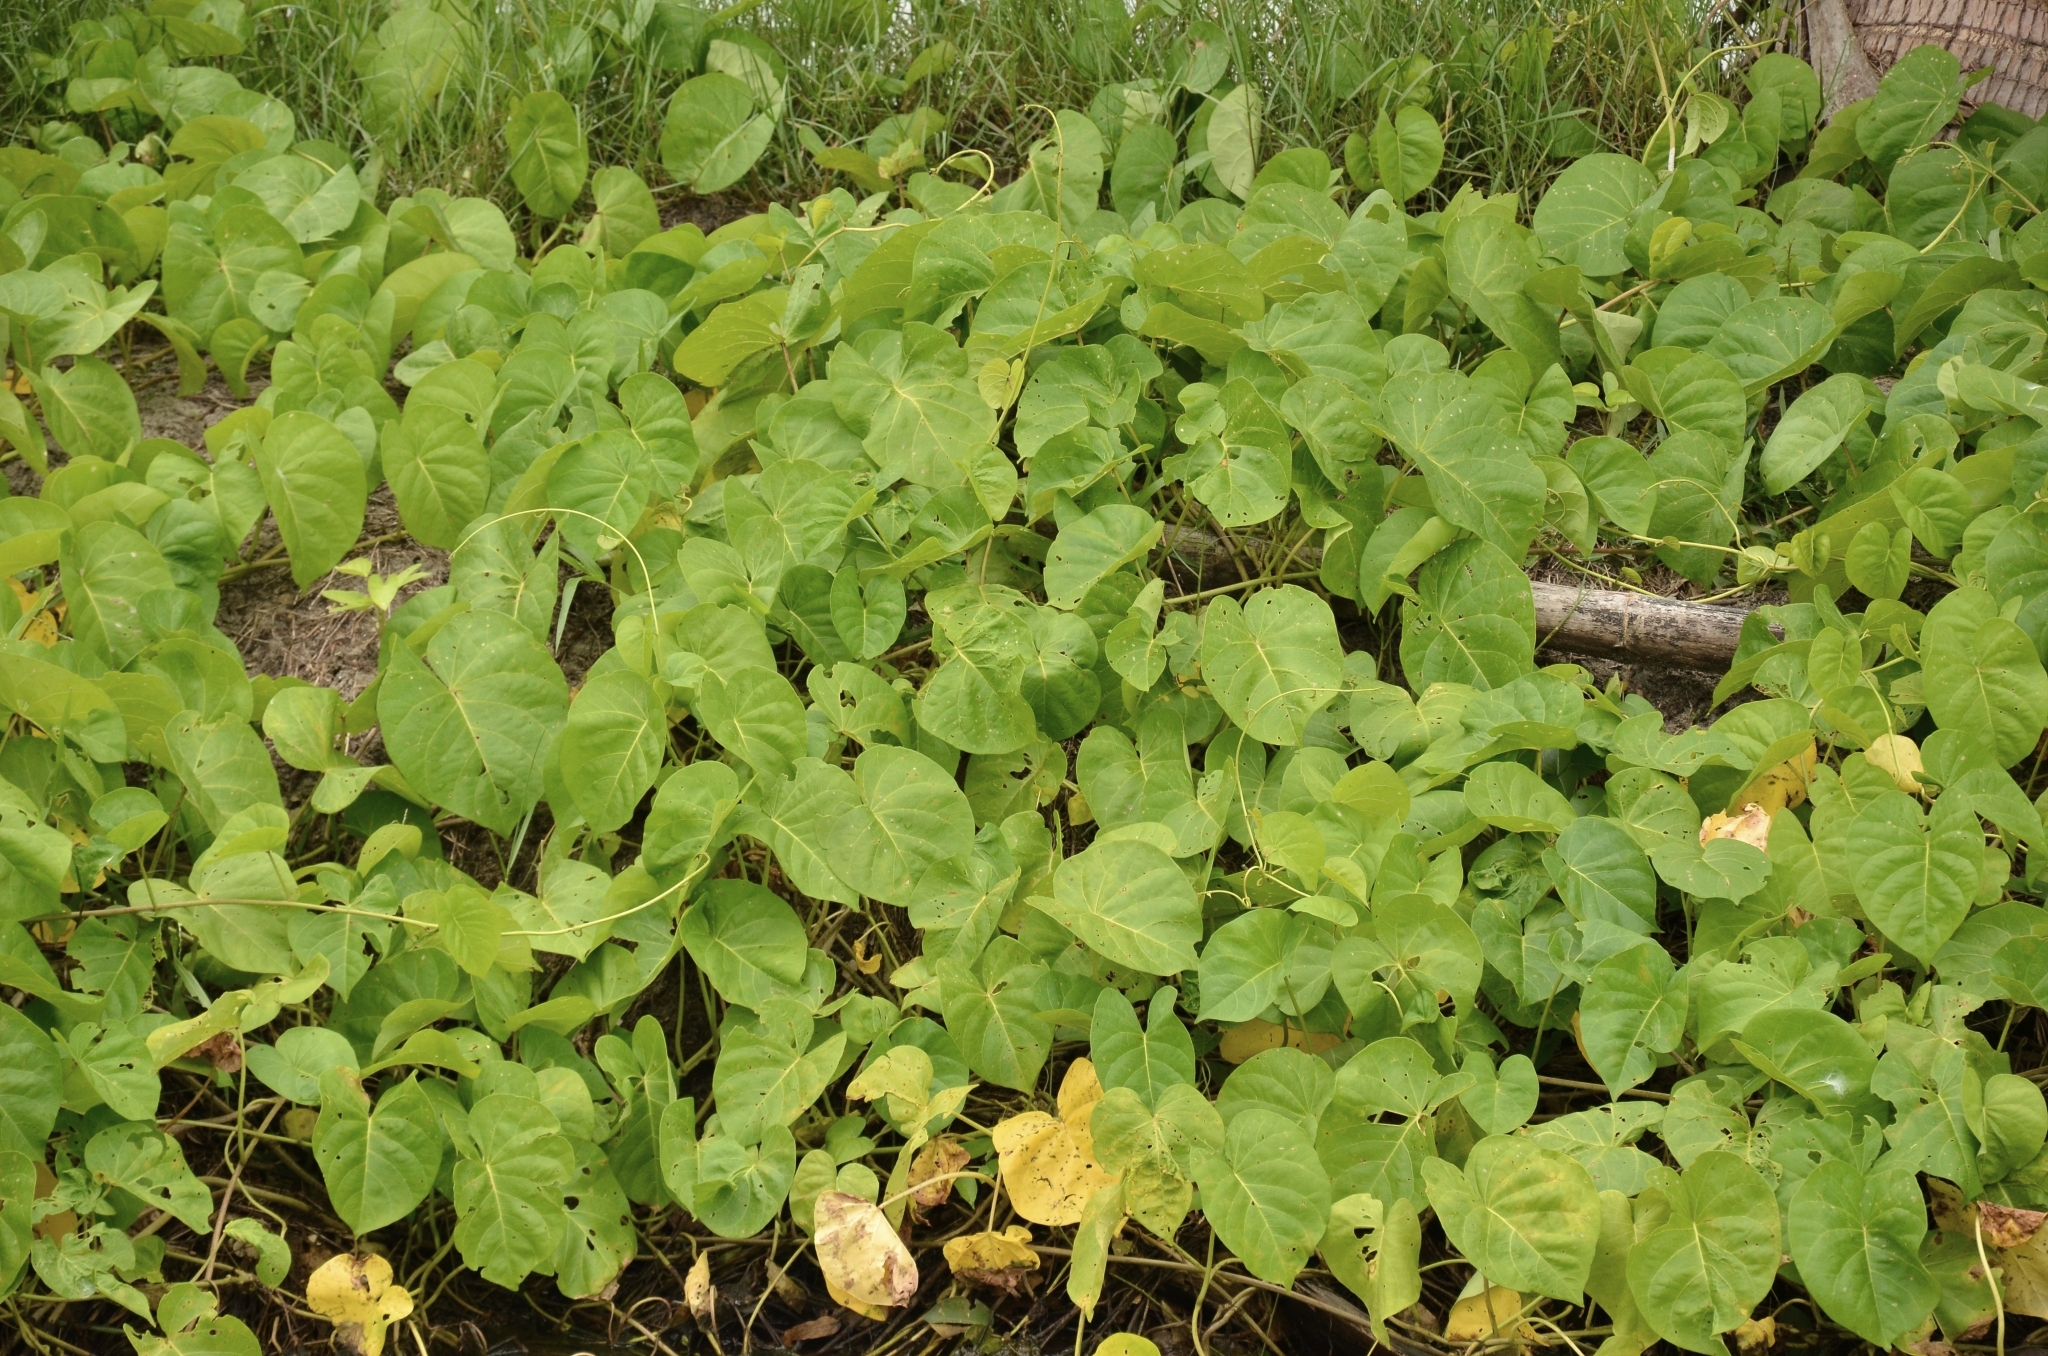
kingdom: Plantae
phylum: Tracheophyta
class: Magnoliopsida
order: Solanales
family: Convolvulaceae
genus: Ipomoea
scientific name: Ipomoea violacea
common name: Beach moonflower
